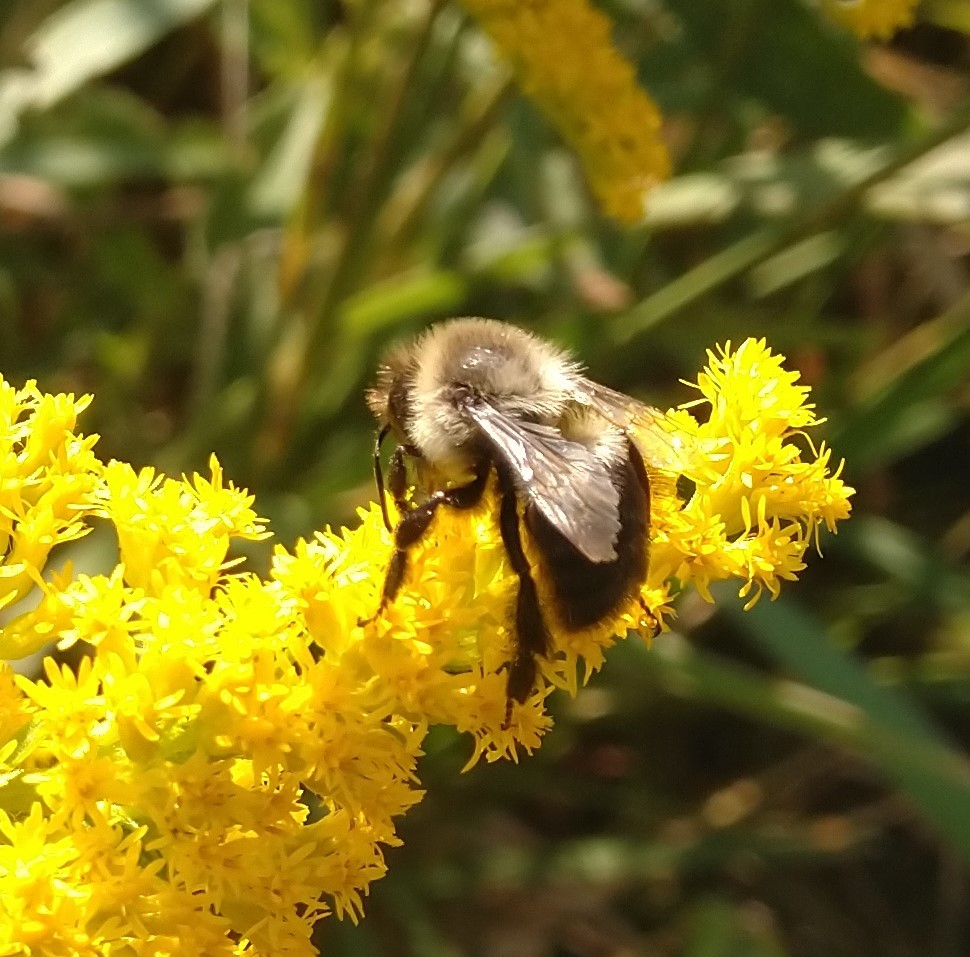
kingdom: Animalia
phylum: Arthropoda
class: Insecta
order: Hymenoptera
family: Apidae
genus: Bombus
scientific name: Bombus impatiens
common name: Common eastern bumble bee
